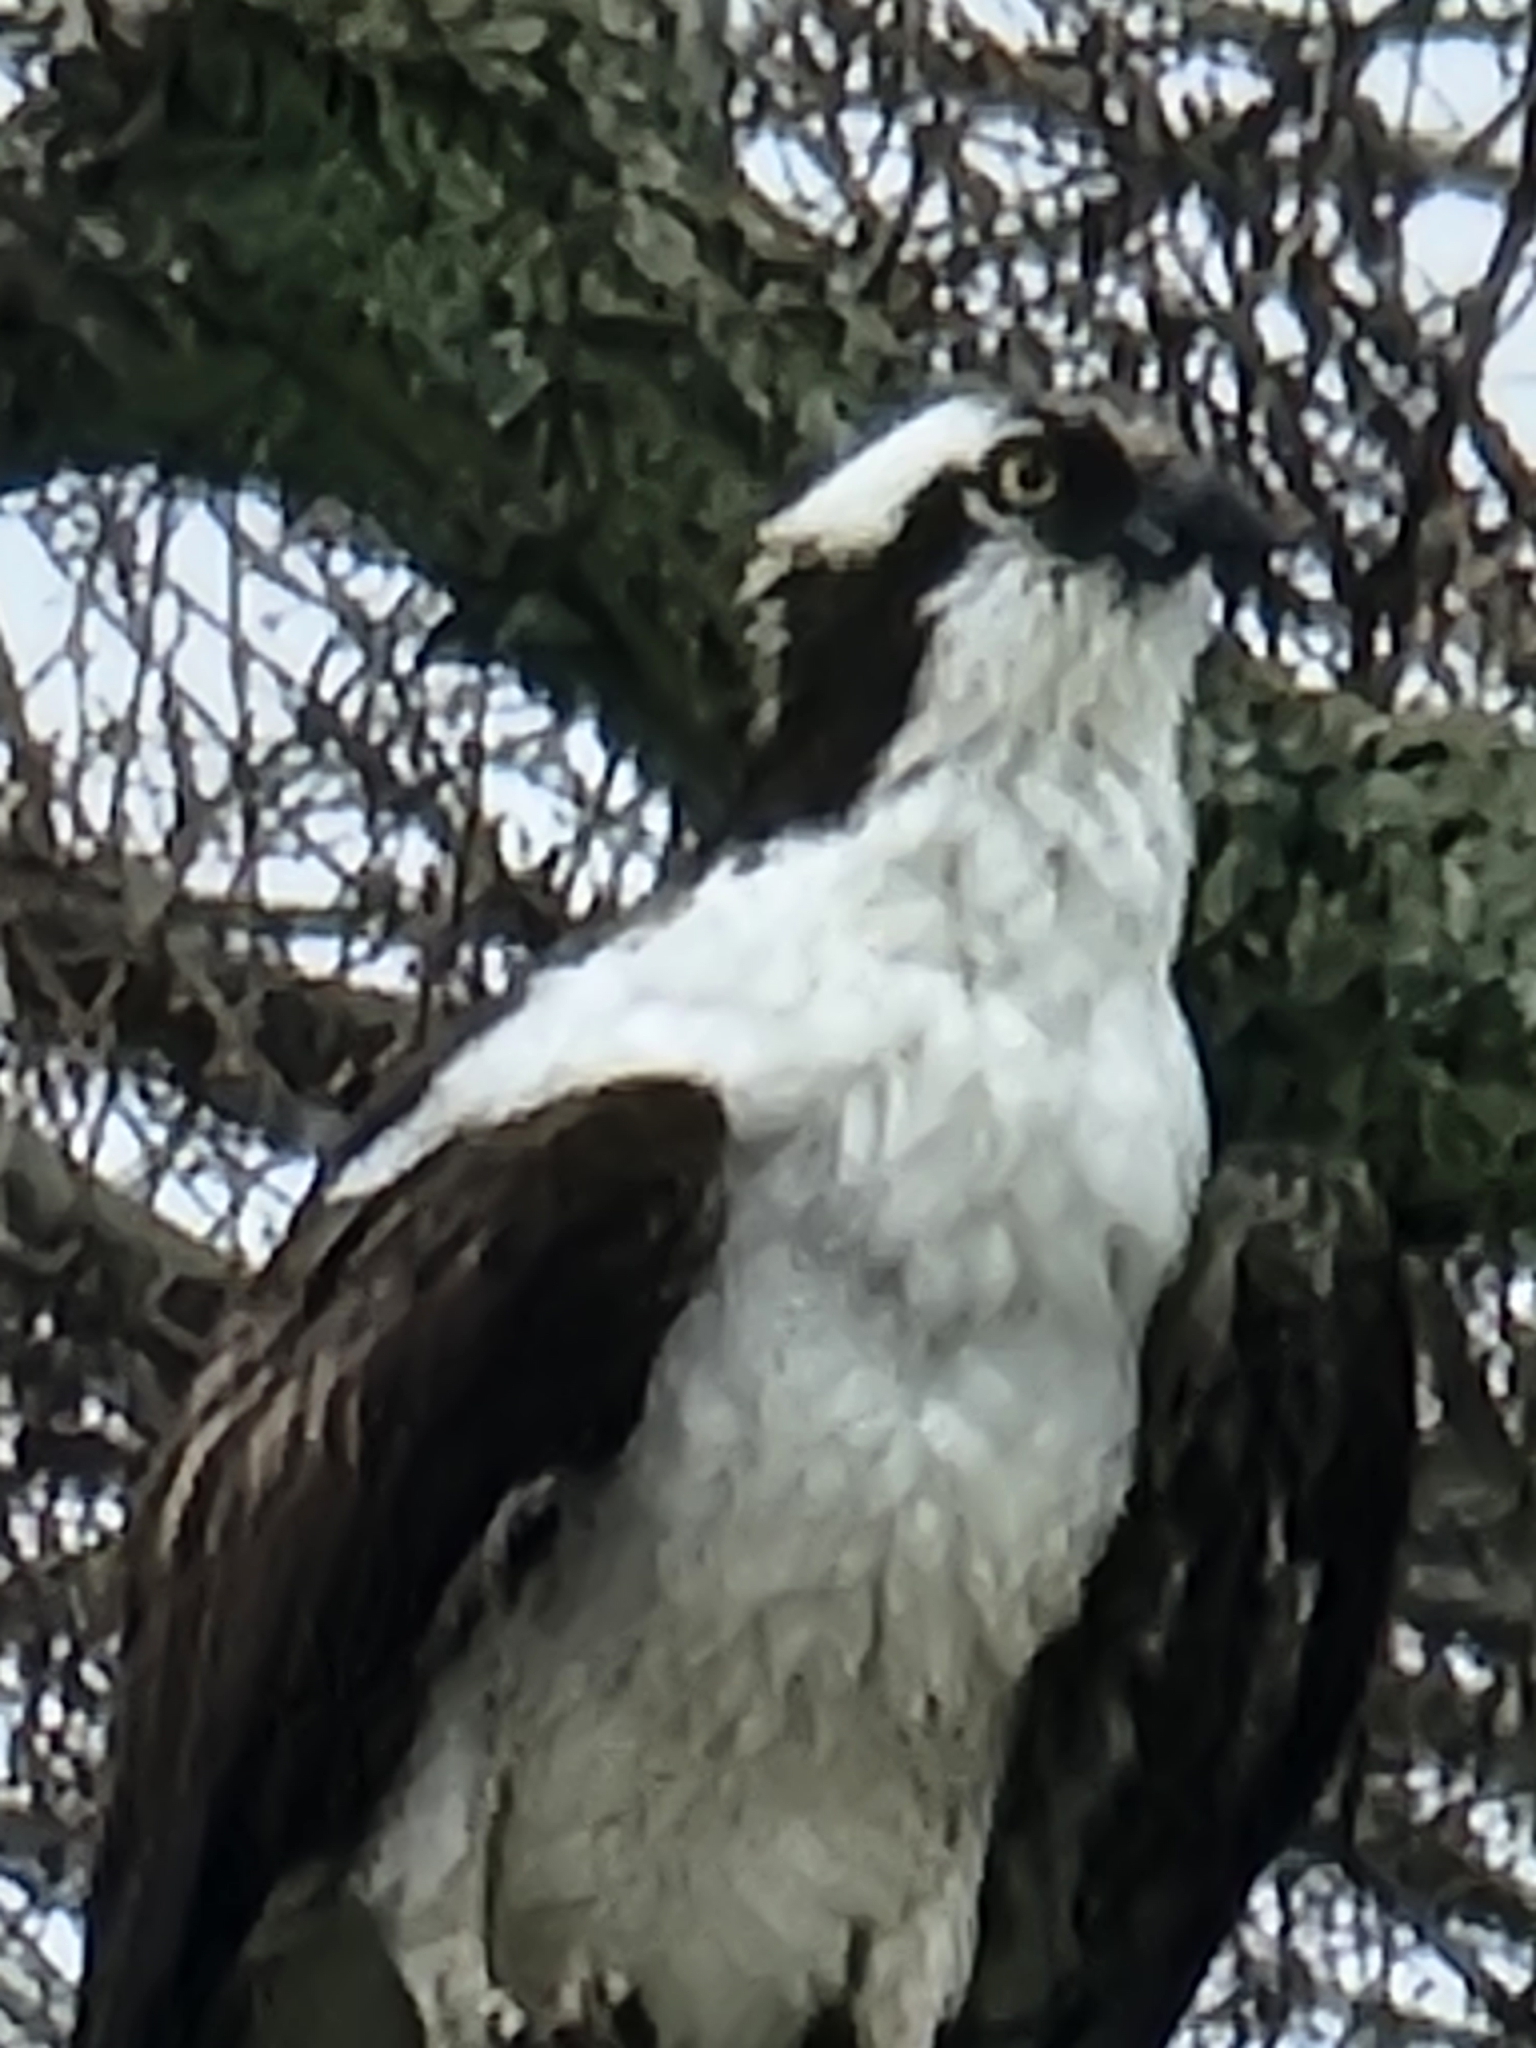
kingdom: Animalia
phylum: Chordata
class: Aves
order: Accipitriformes
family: Pandionidae
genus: Pandion
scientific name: Pandion haliaetus
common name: Osprey
